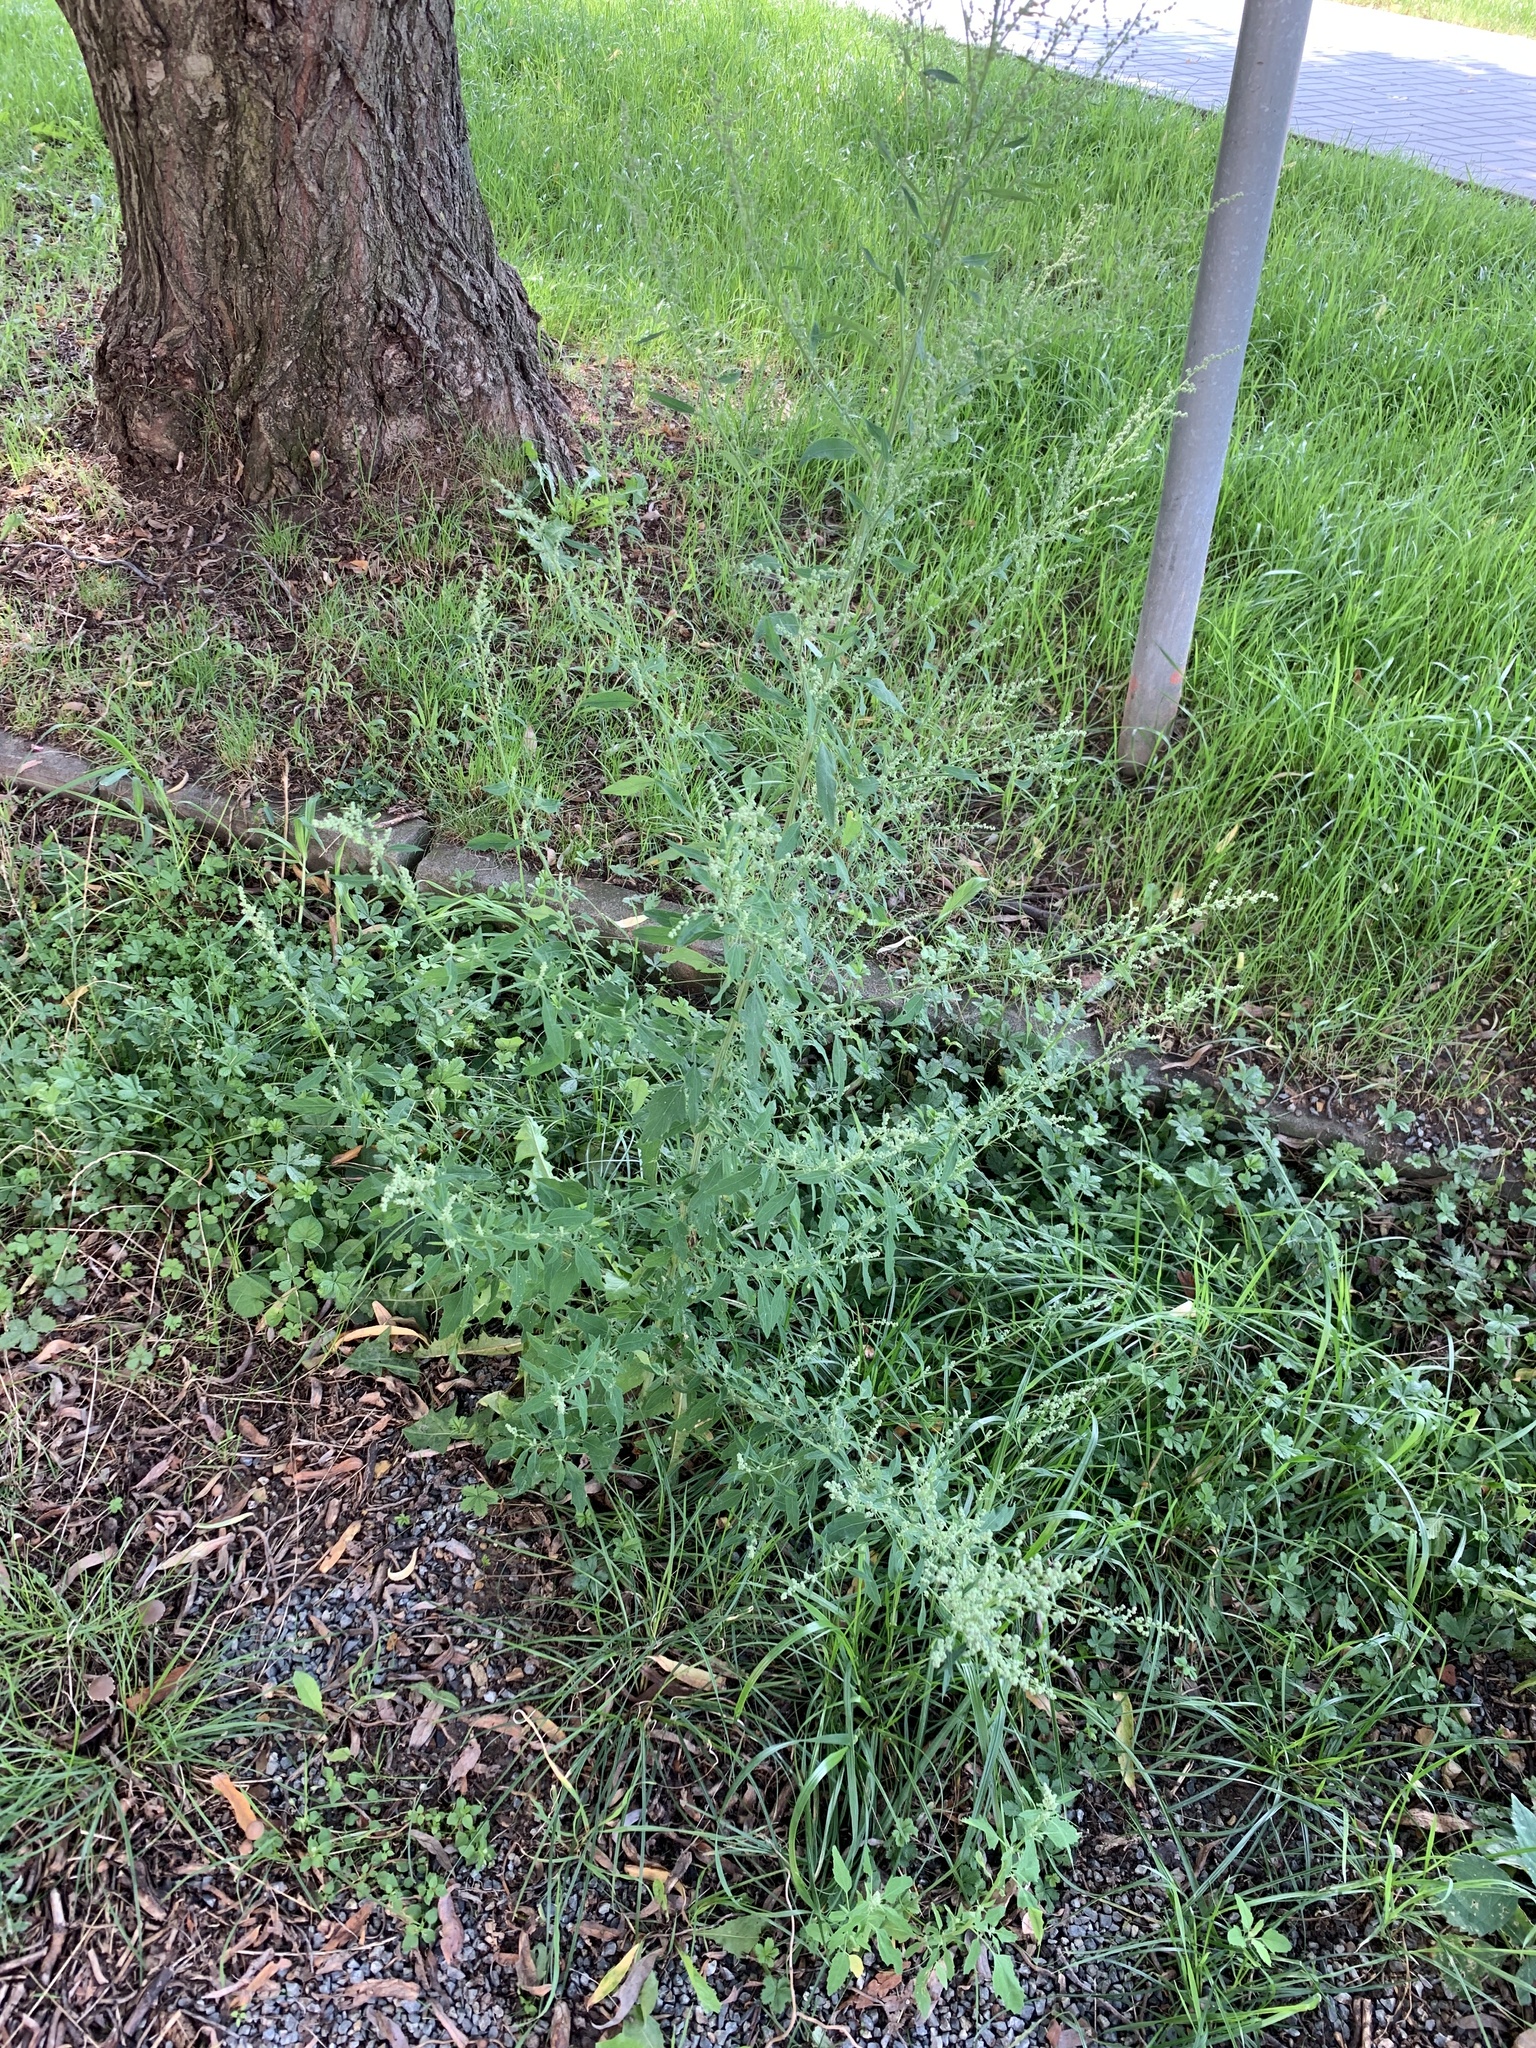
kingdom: Plantae
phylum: Tracheophyta
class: Magnoliopsida
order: Caryophyllales
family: Amaranthaceae
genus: Chenopodium
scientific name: Chenopodium album
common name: Fat-hen
